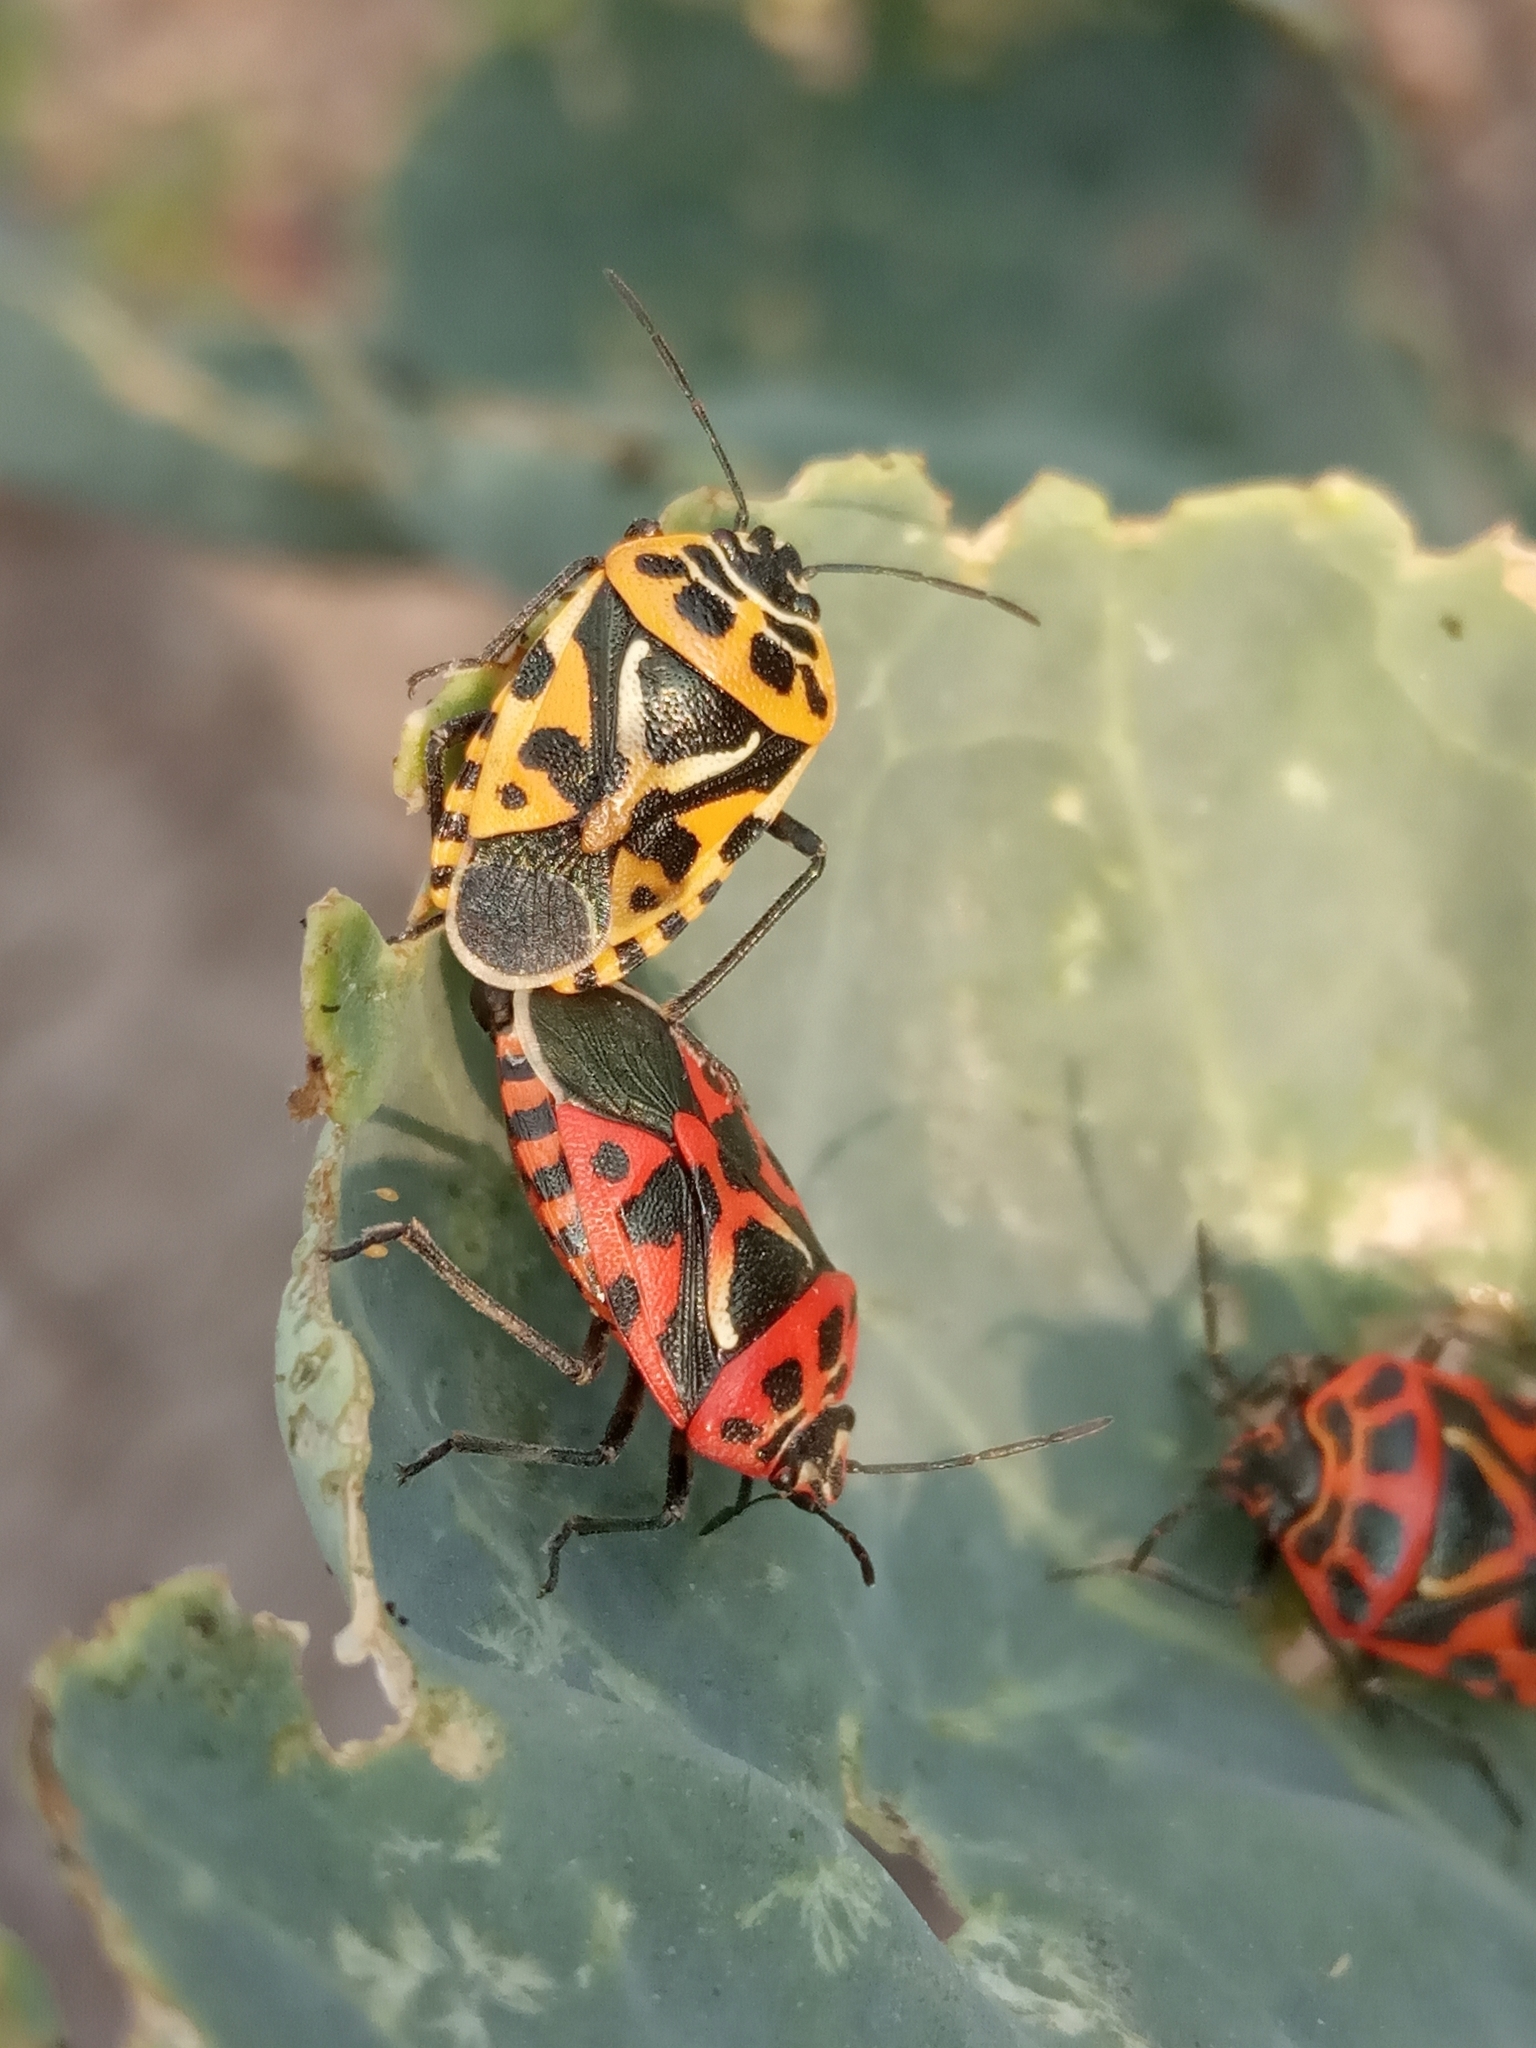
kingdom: Animalia
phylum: Arthropoda
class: Insecta
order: Hemiptera
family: Pentatomidae
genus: Eurydema
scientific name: Eurydema ventralis
